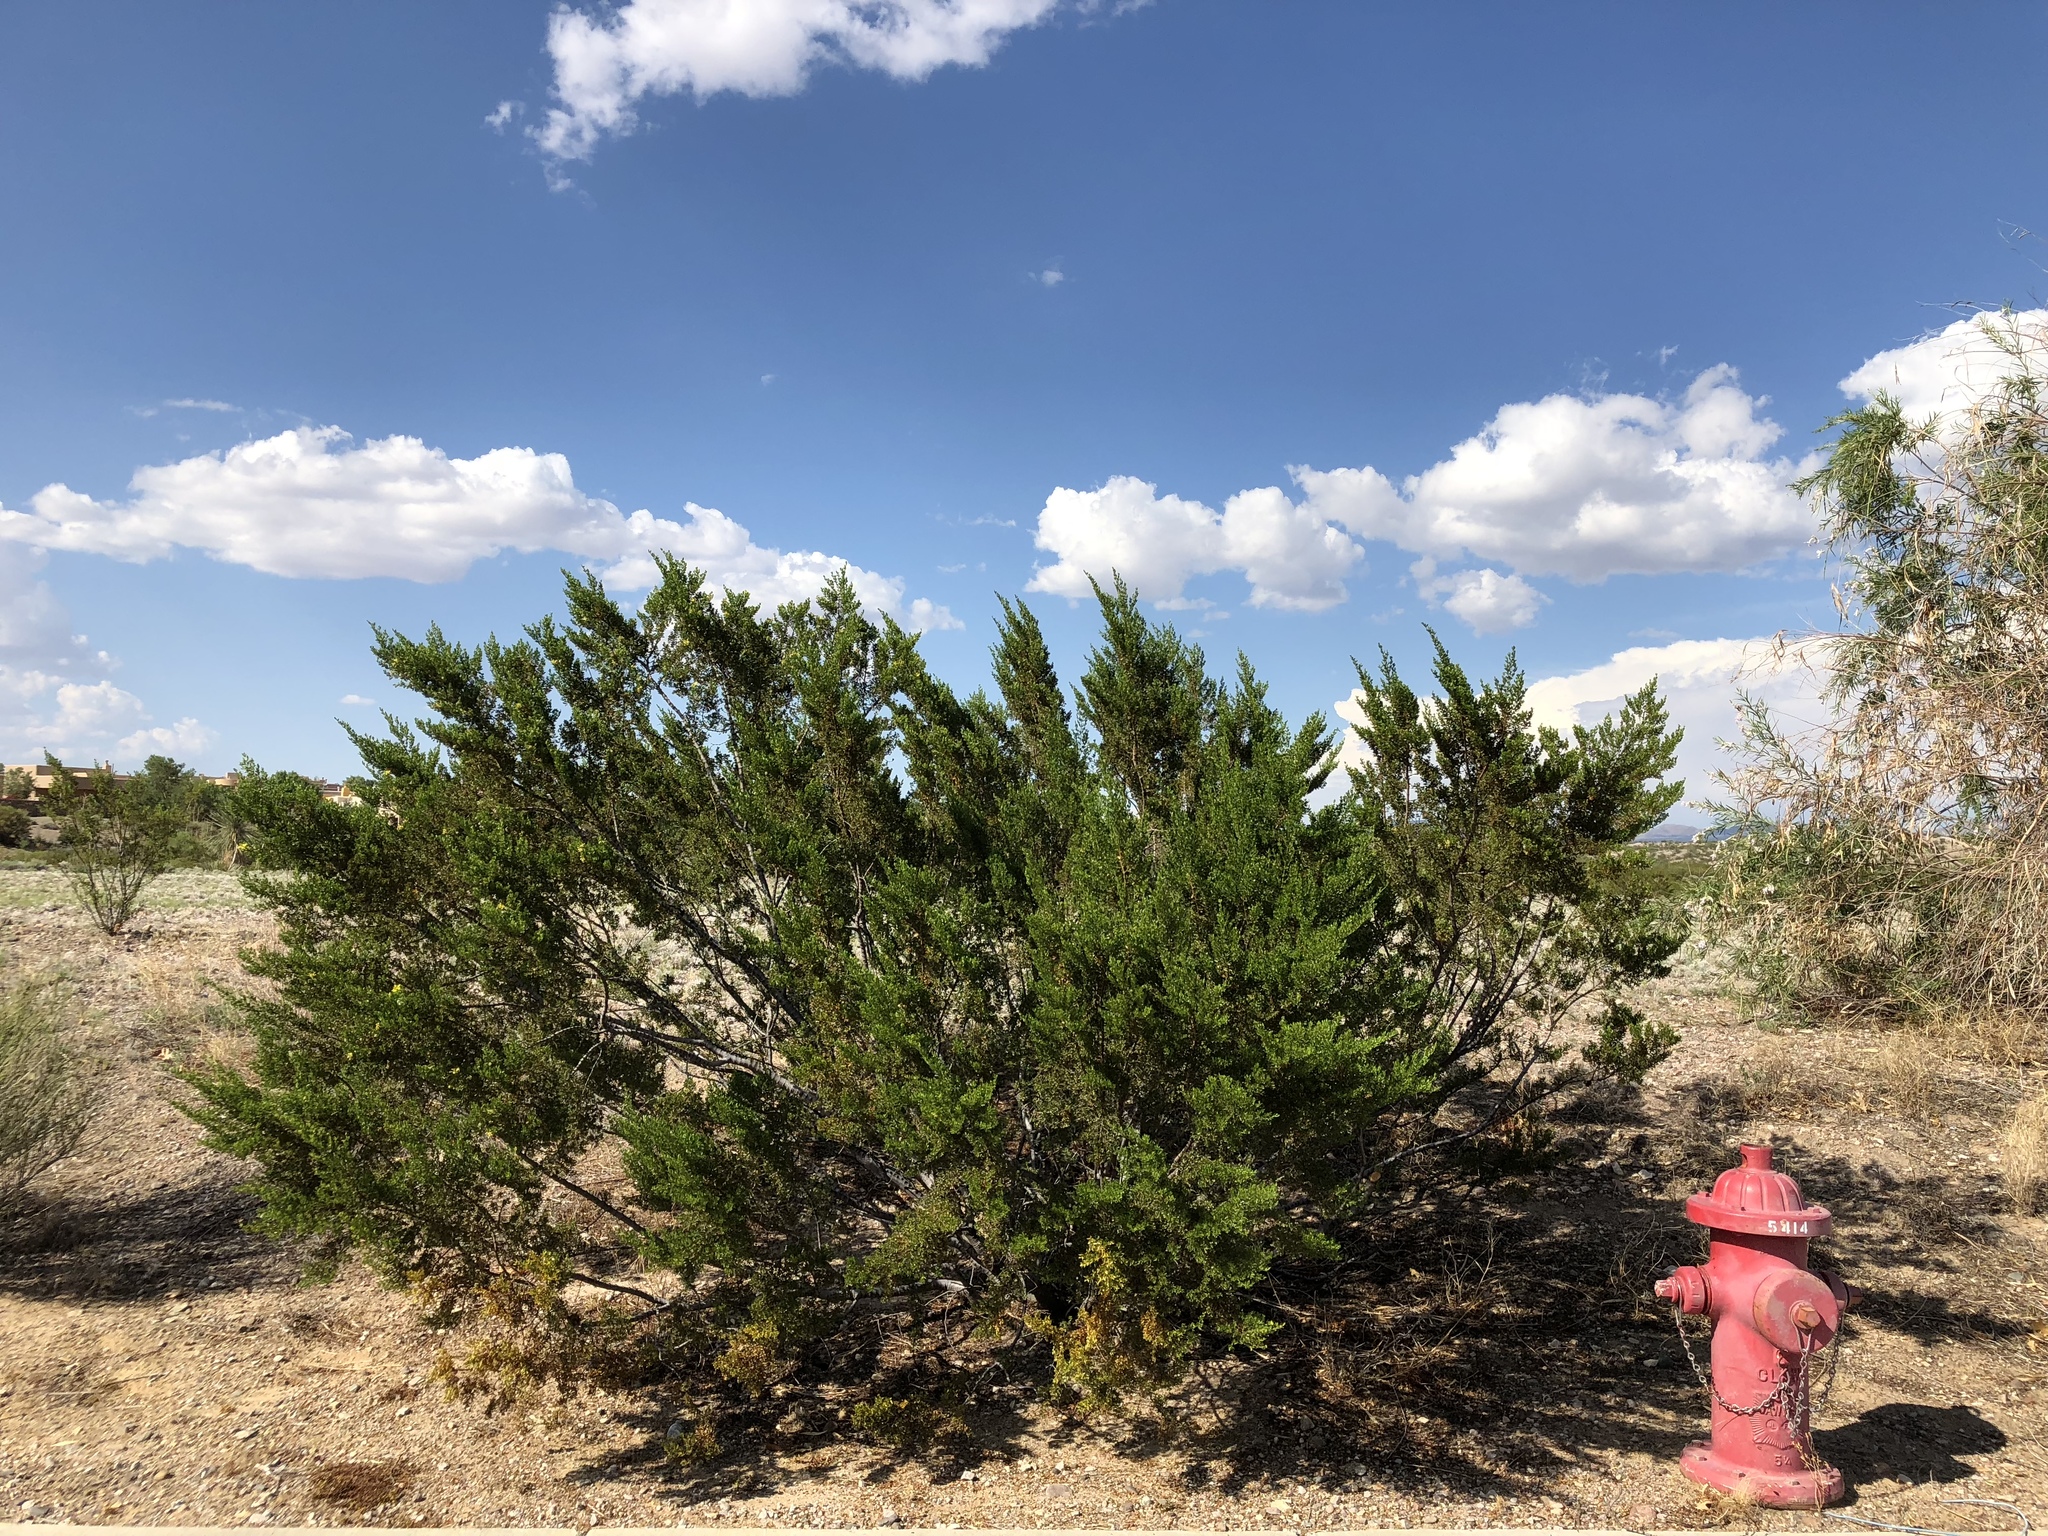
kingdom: Plantae
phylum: Tracheophyta
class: Magnoliopsida
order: Zygophyllales
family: Zygophyllaceae
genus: Larrea
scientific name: Larrea tridentata
